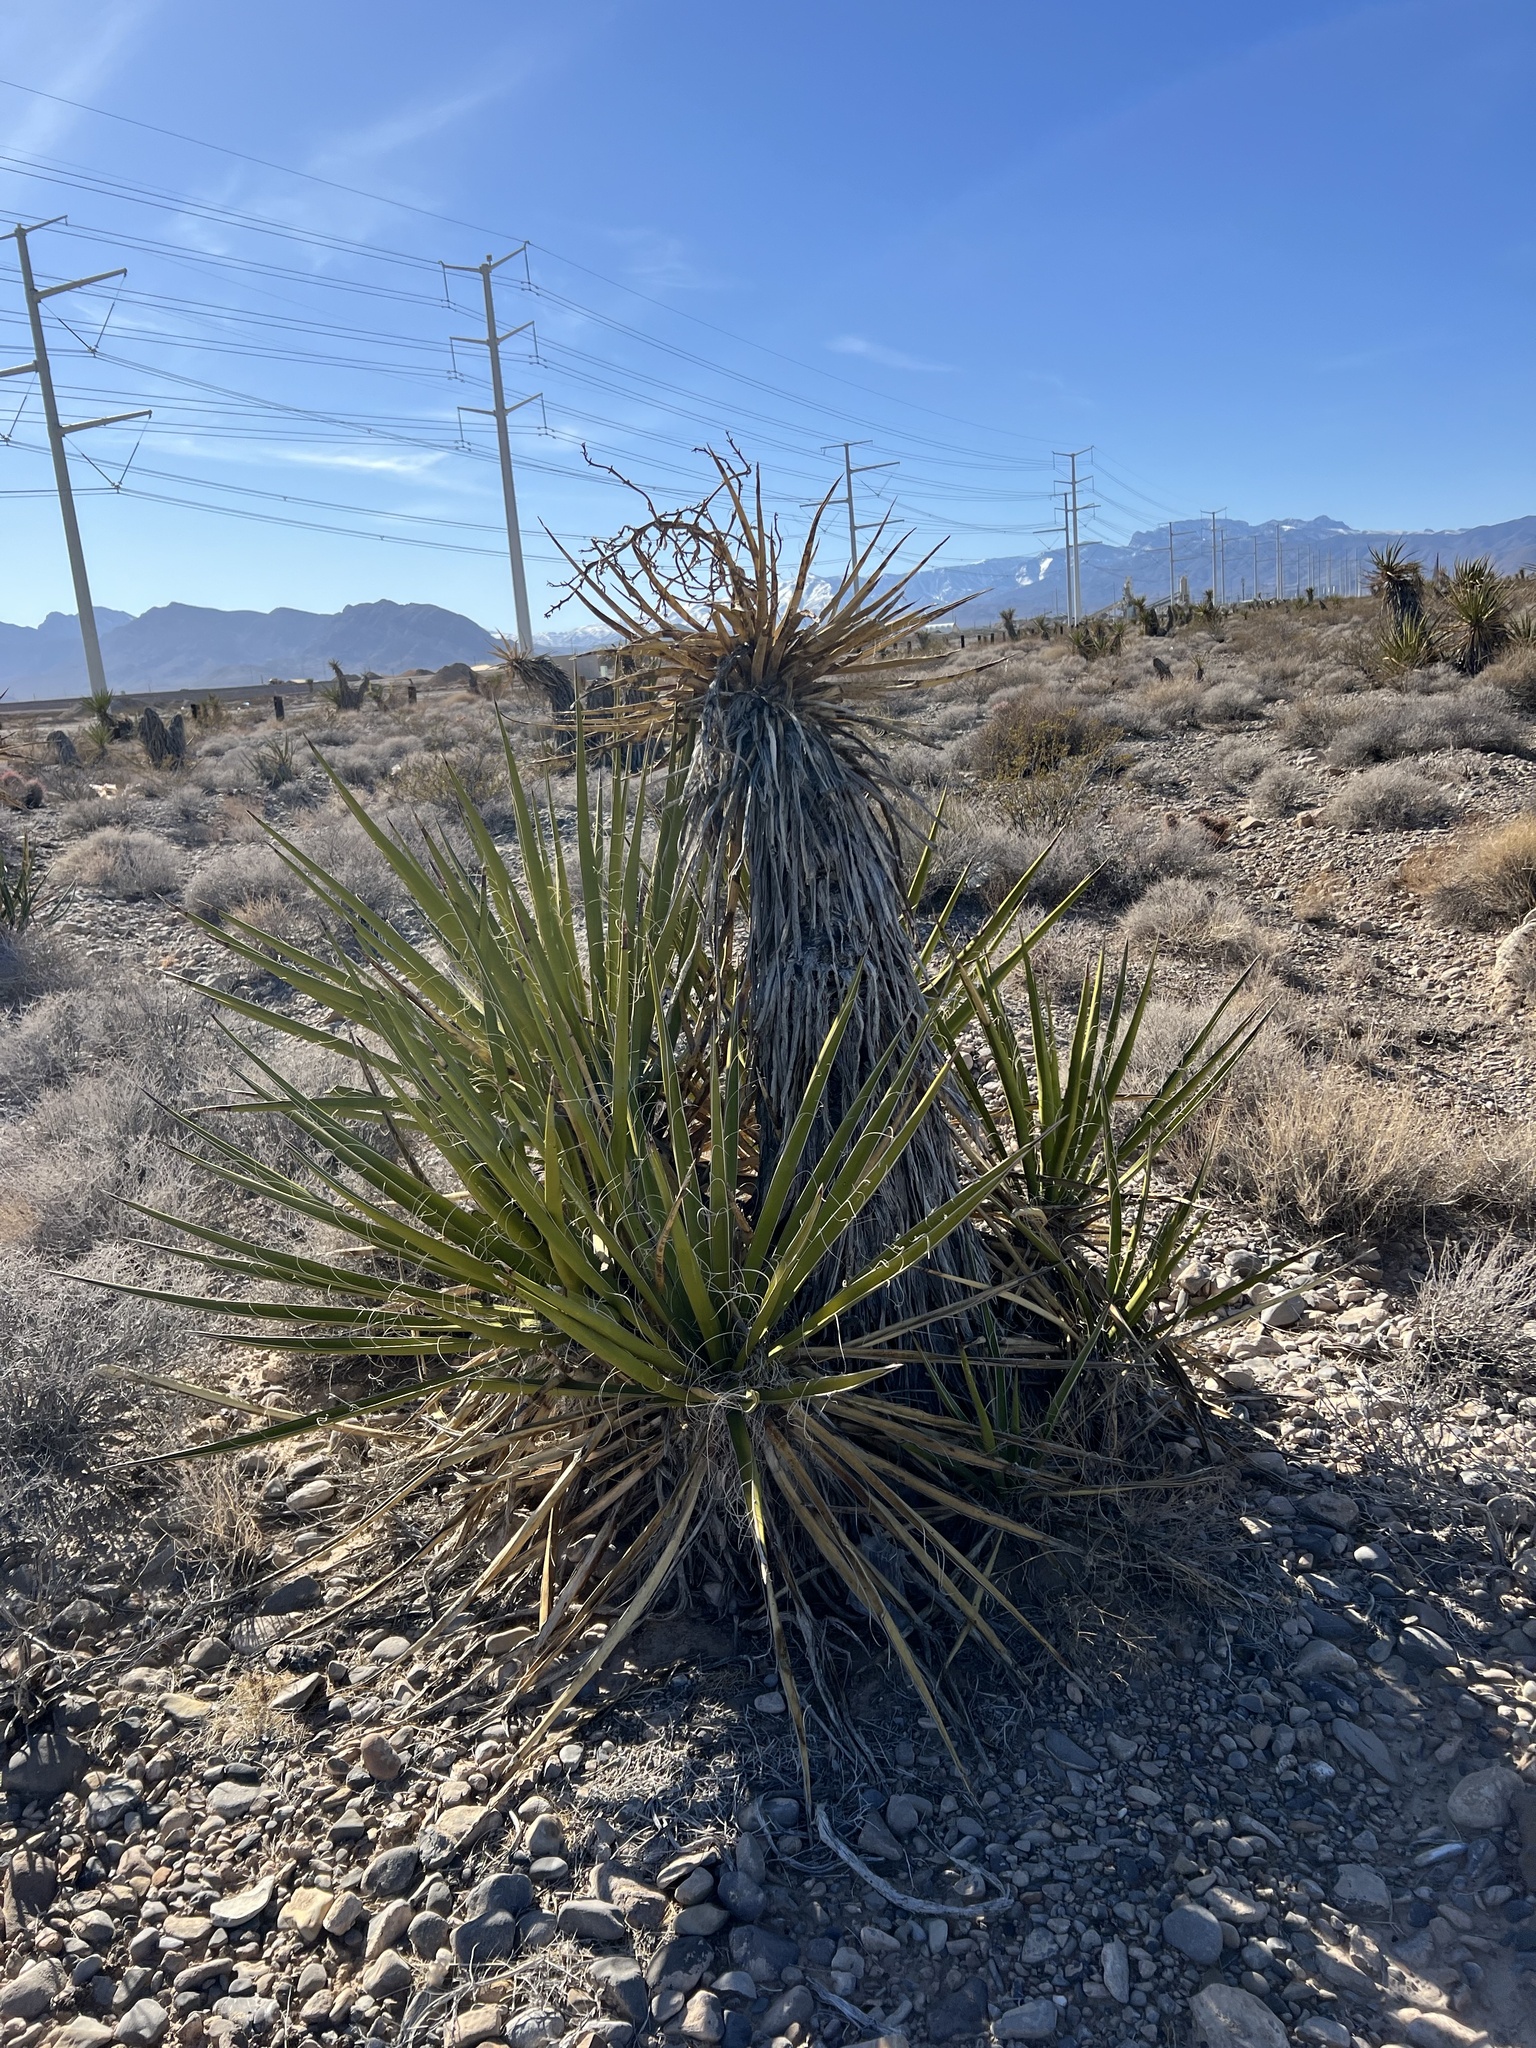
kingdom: Plantae
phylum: Tracheophyta
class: Liliopsida
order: Asparagales
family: Asparagaceae
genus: Yucca
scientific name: Yucca schidigera
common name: Mojave yucca
